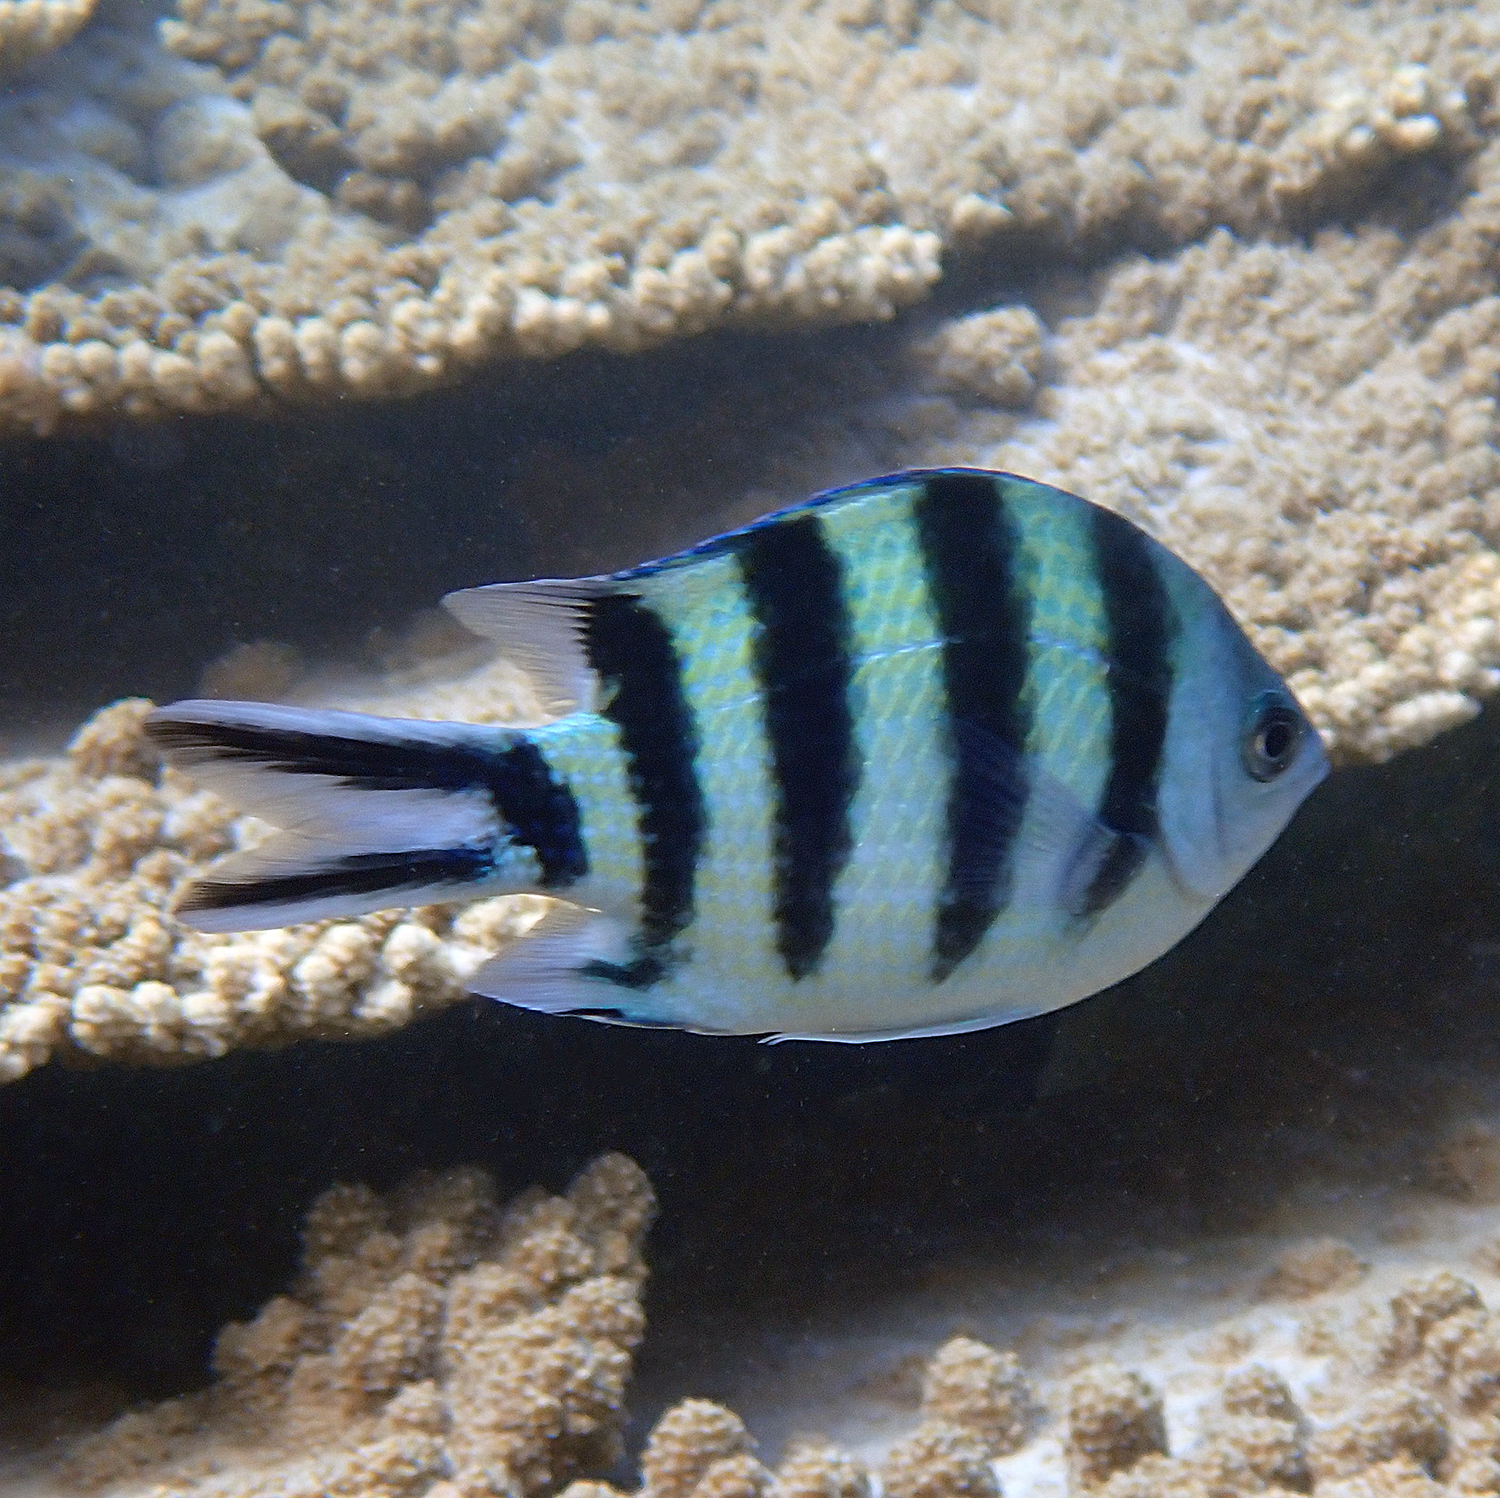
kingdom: Animalia
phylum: Chordata
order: Perciformes
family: Pomacentridae
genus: Abudefduf
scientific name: Abudefduf sexfasciatus
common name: Scissortail sergeant
